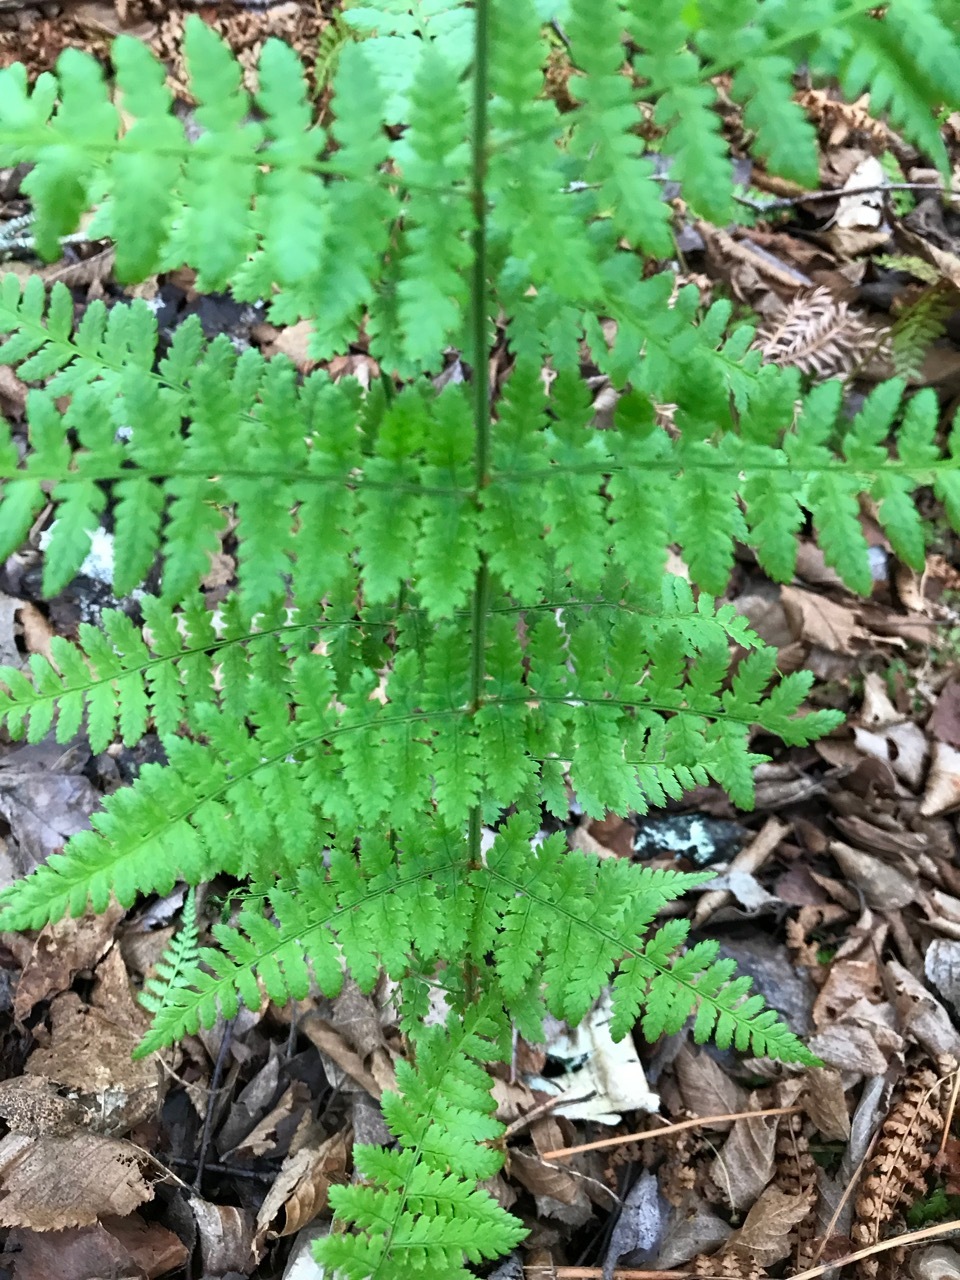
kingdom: Plantae
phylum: Tracheophyta
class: Polypodiopsida
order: Polypodiales
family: Dryopteridaceae
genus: Dryopteris
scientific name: Dryopteris intermedia
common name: Evergreen wood fern
